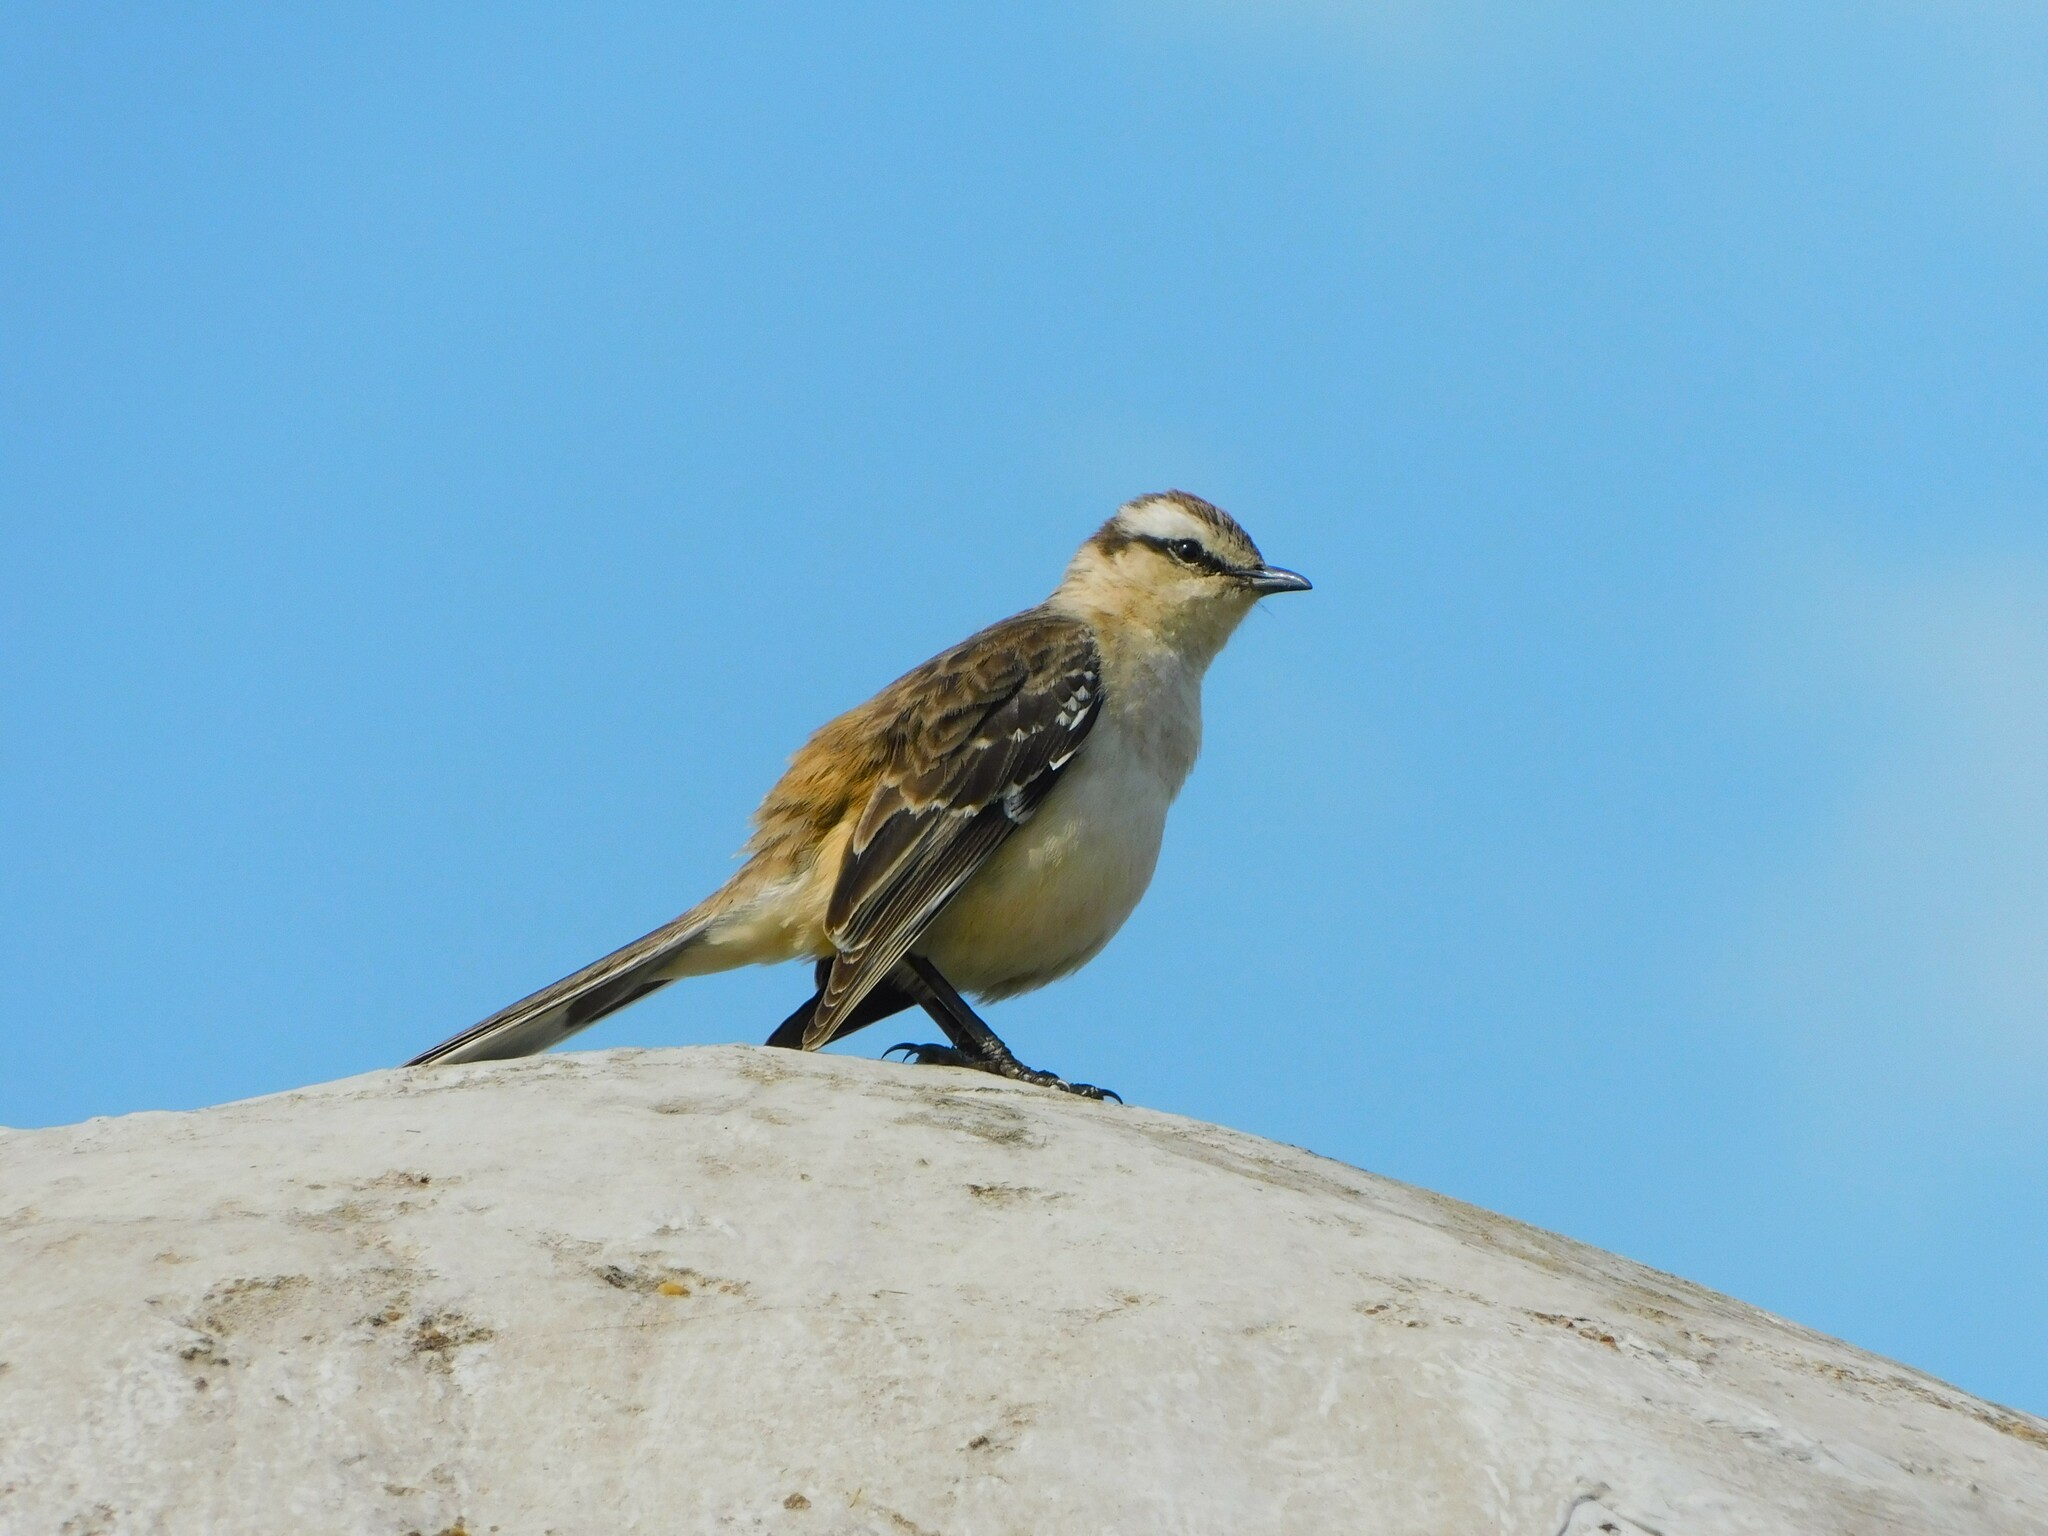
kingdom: Animalia
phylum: Chordata
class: Aves
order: Passeriformes
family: Mimidae
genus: Mimus
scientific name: Mimus saturninus
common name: Chalk-browed mockingbird
